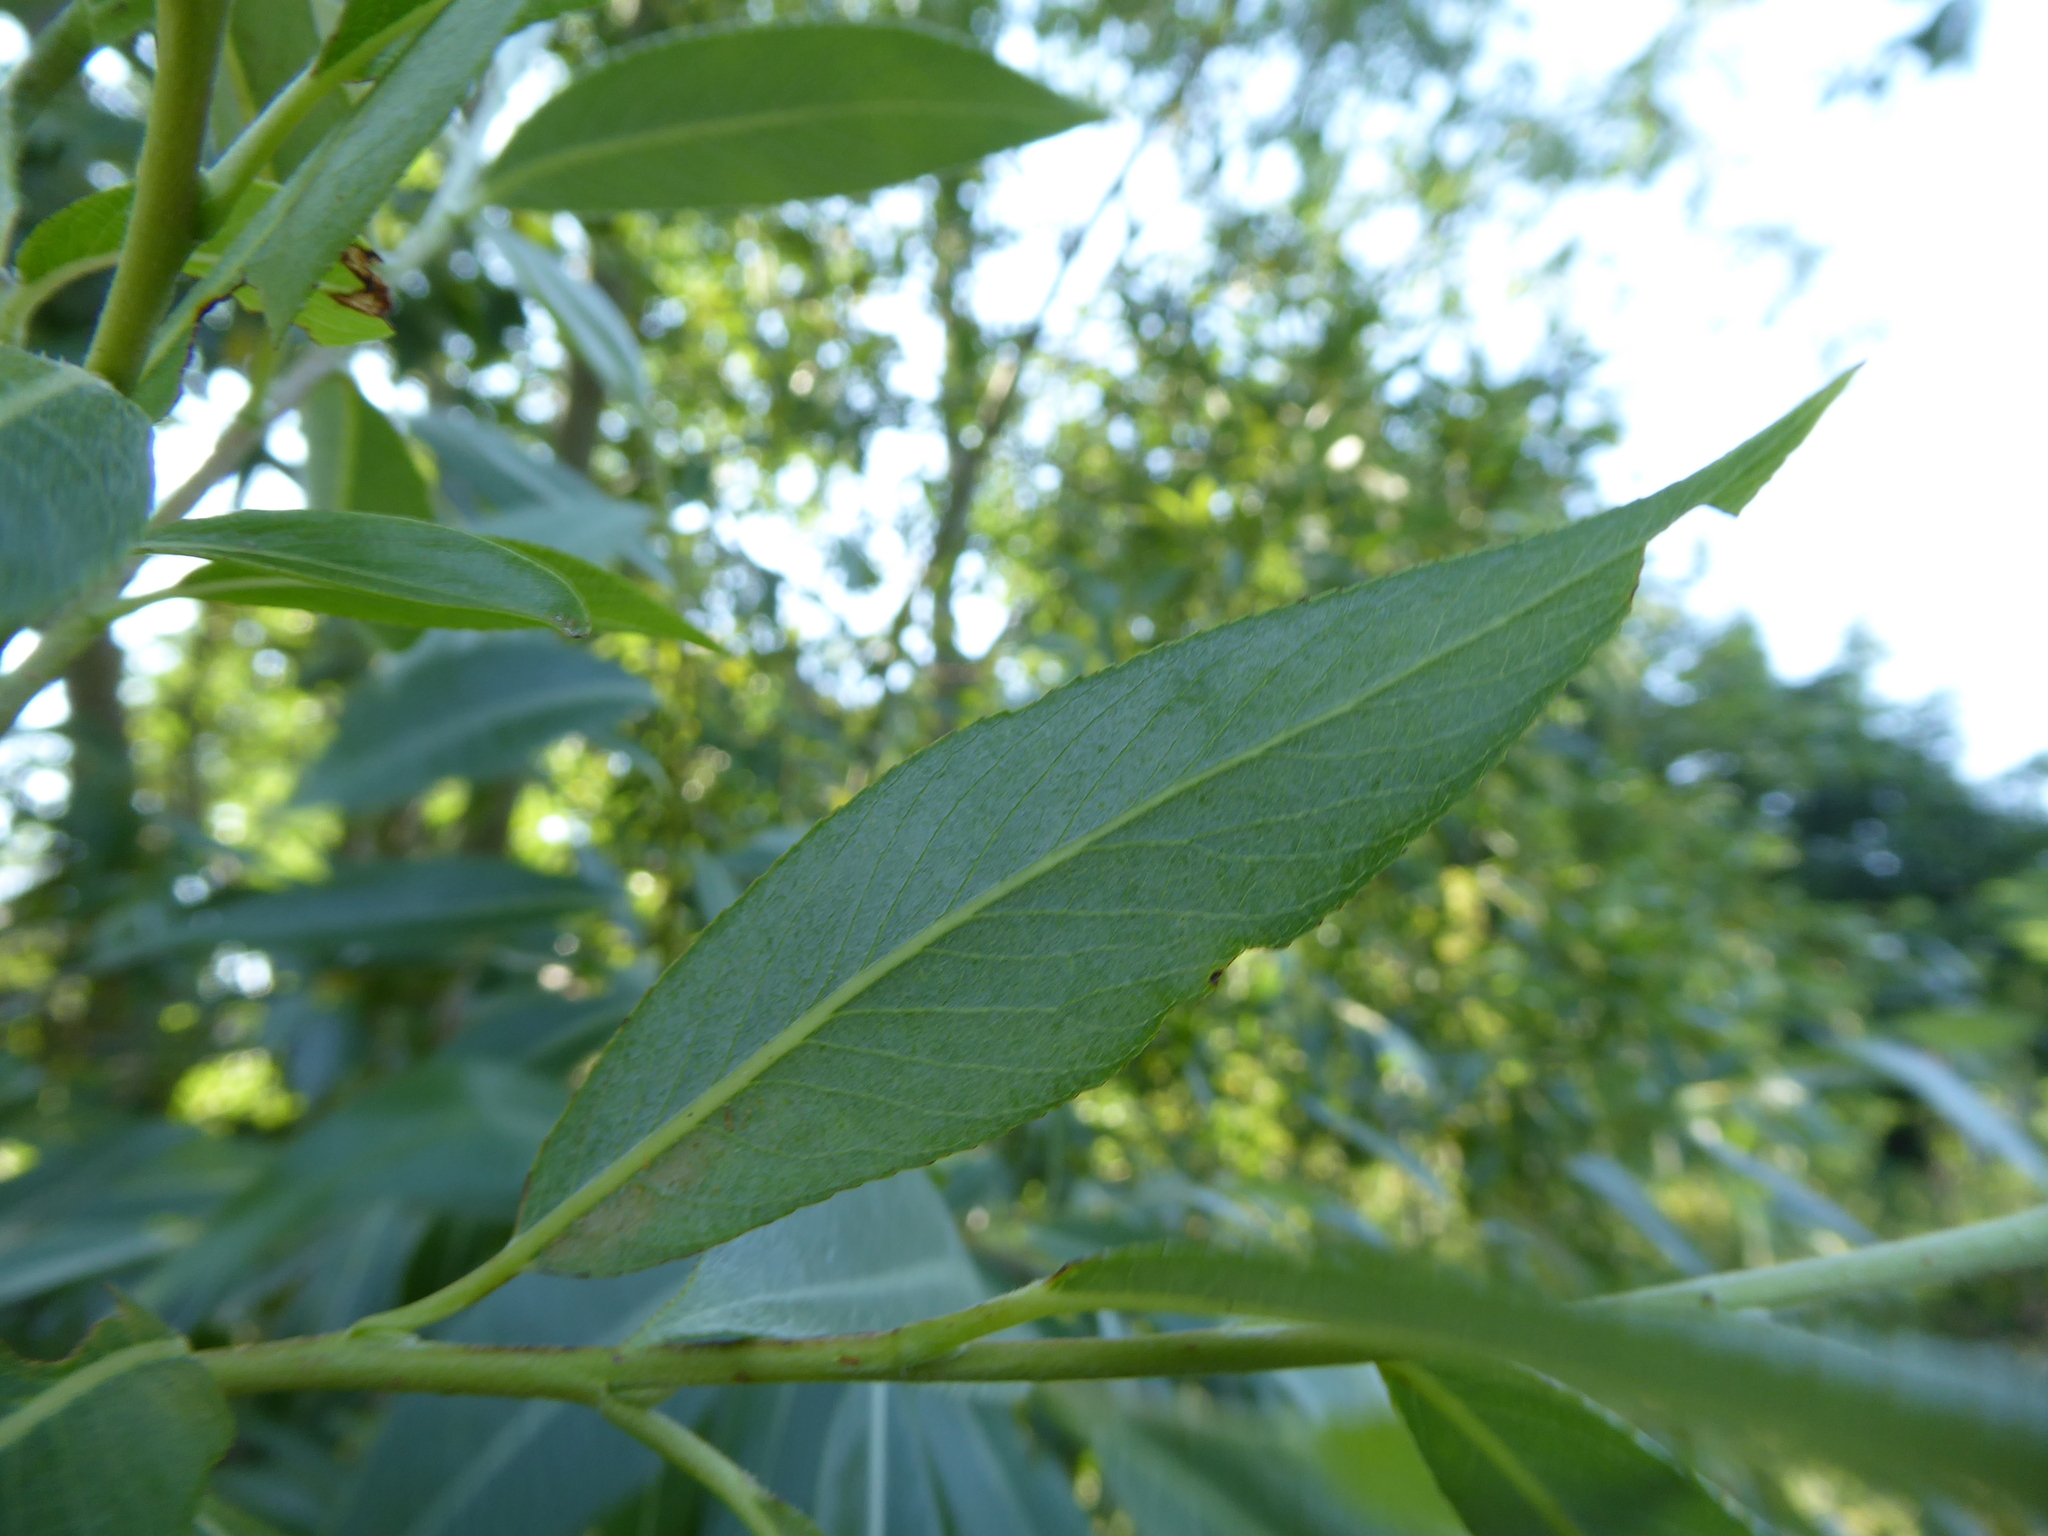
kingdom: Plantae
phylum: Tracheophyta
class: Magnoliopsida
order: Malpighiales
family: Salicaceae
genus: Salix
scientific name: Salix alba
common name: White willow
